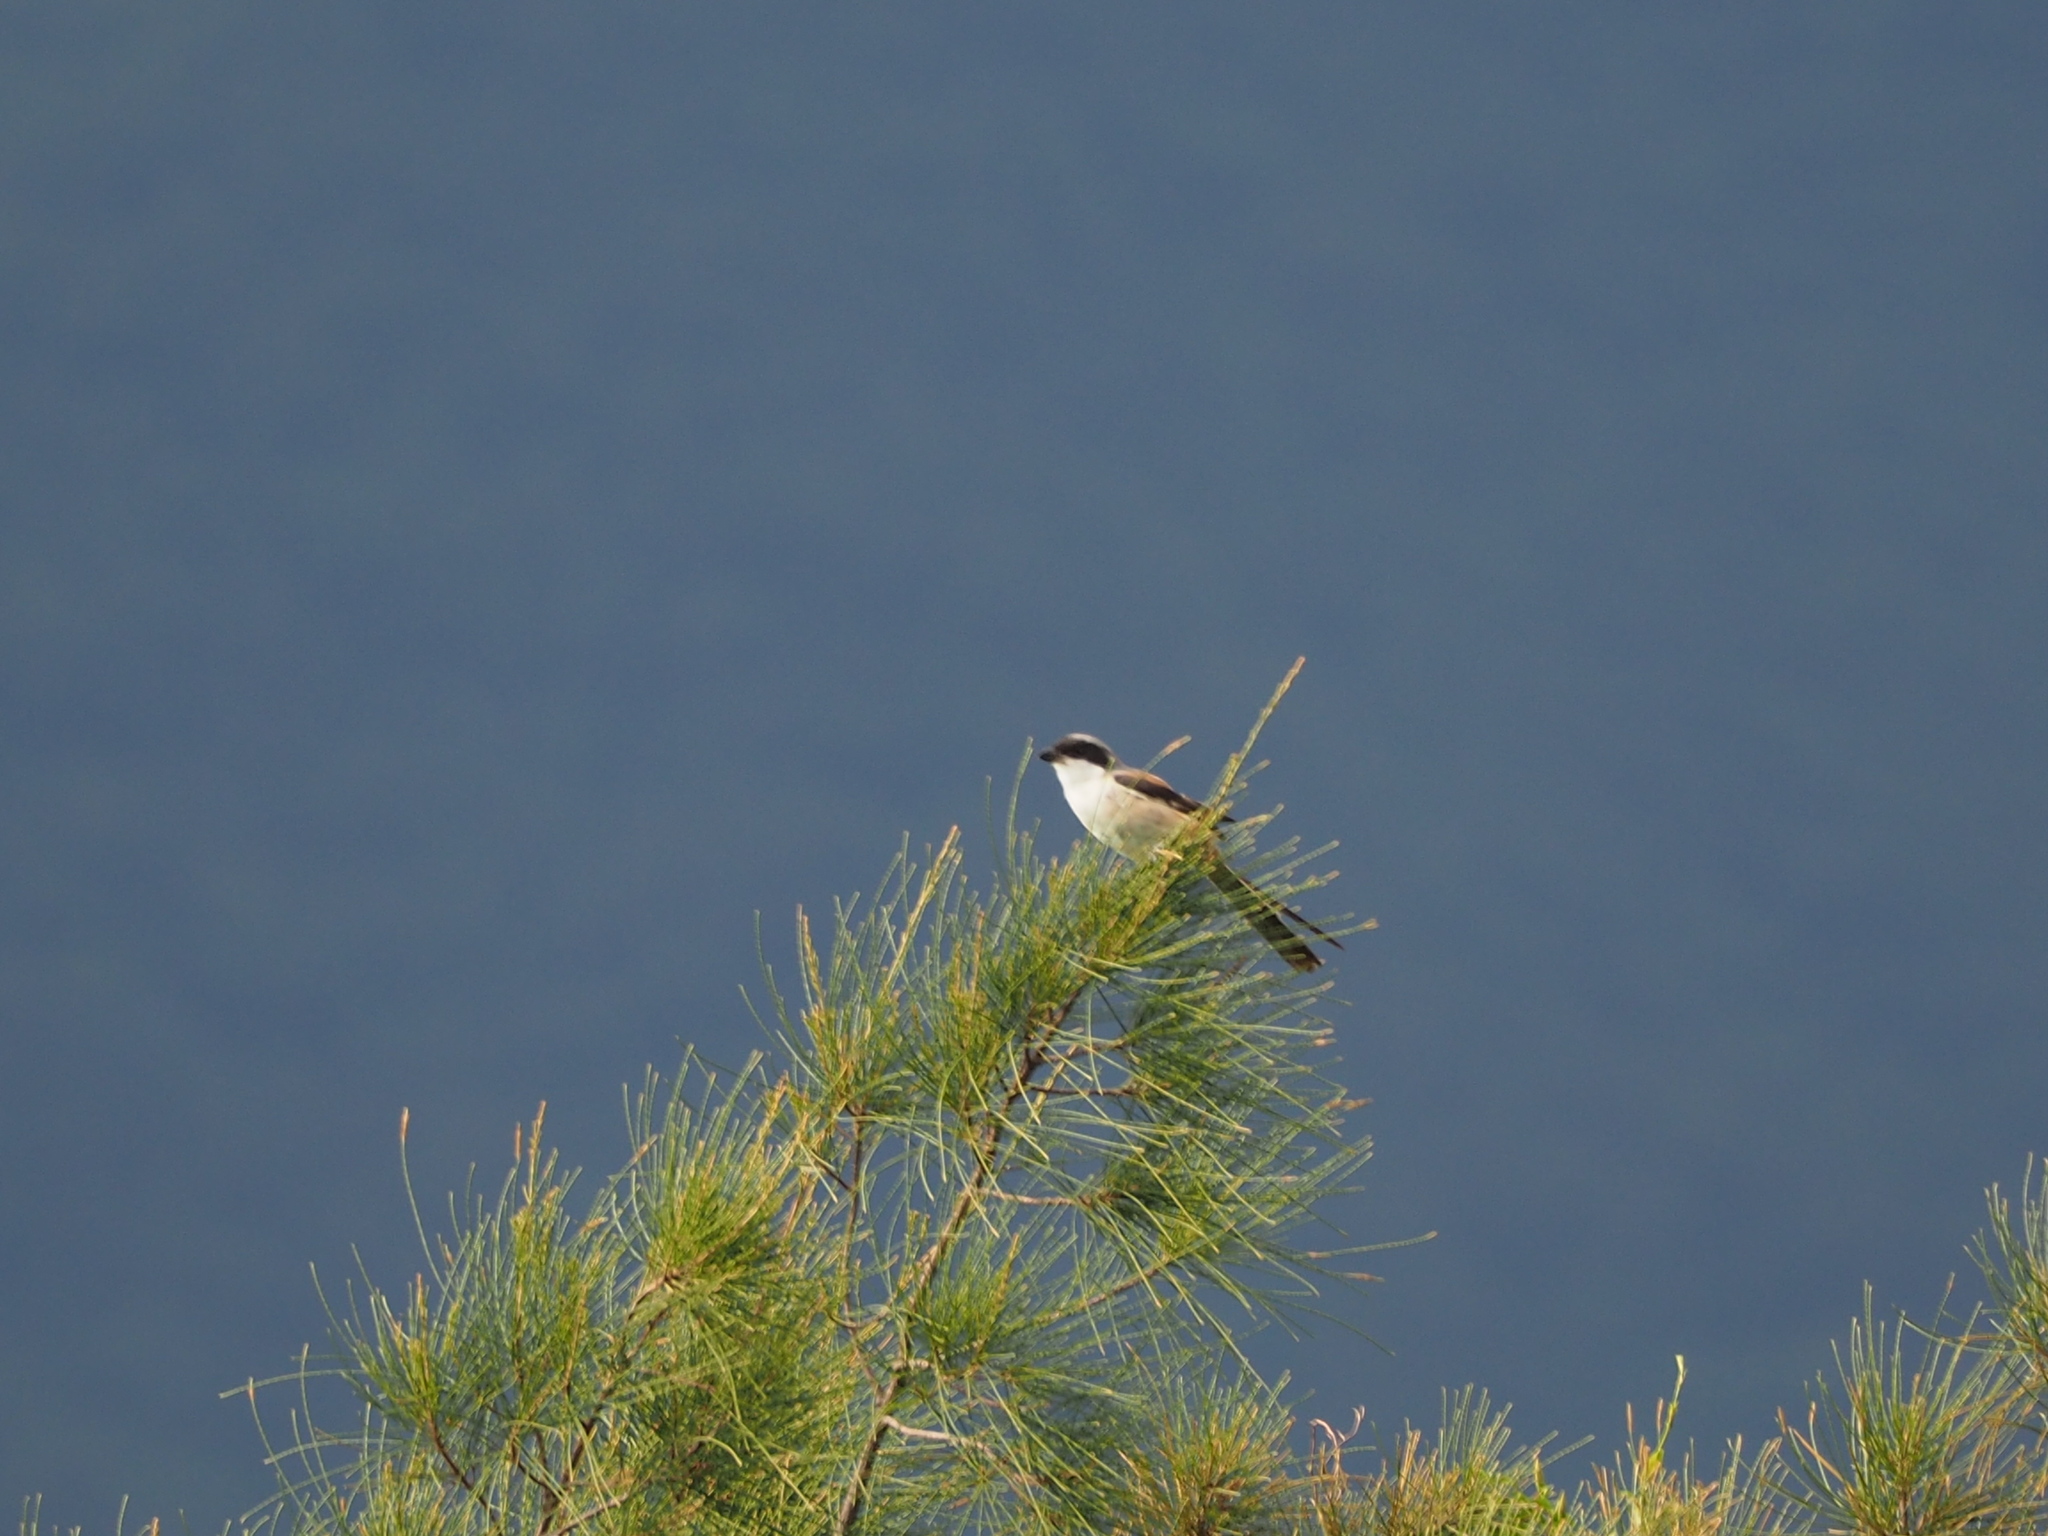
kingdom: Animalia
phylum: Chordata
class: Aves
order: Passeriformes
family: Laniidae
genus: Lanius
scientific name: Lanius schach
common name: Long-tailed shrike
